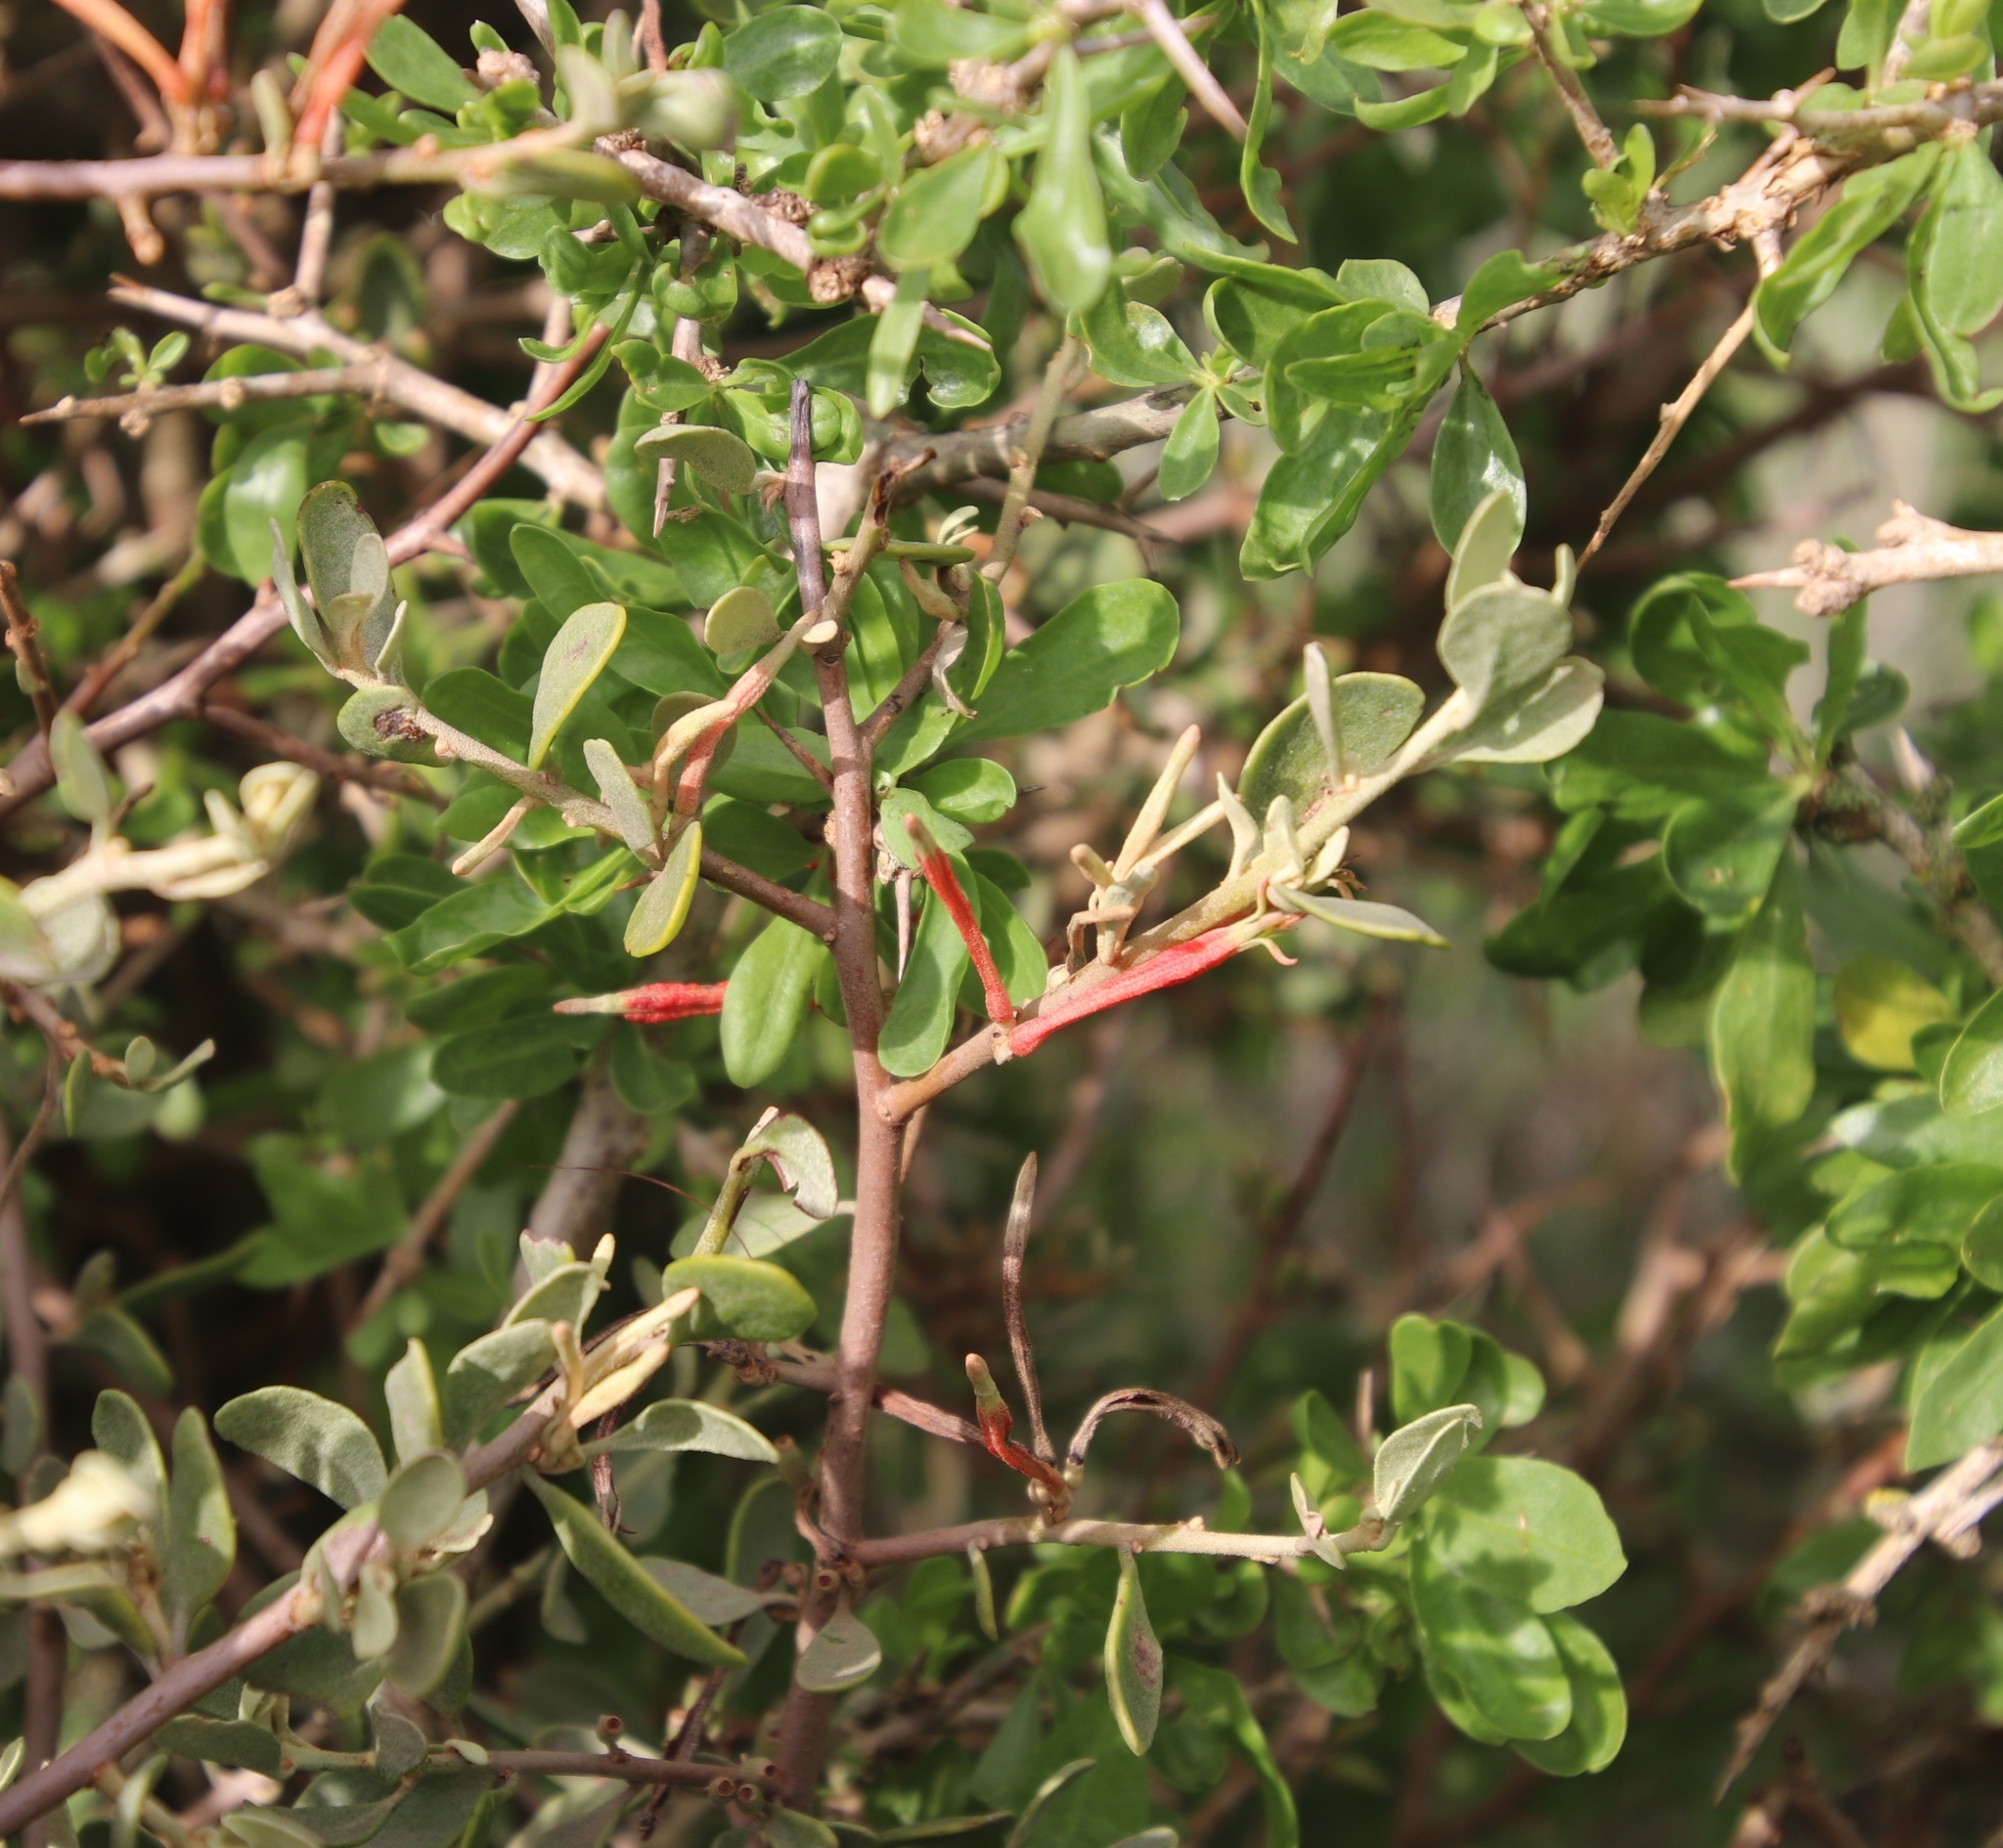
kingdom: Plantae
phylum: Tracheophyta
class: Magnoliopsida
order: Santalales
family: Loranthaceae
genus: Septulina
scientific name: Septulina glauca
